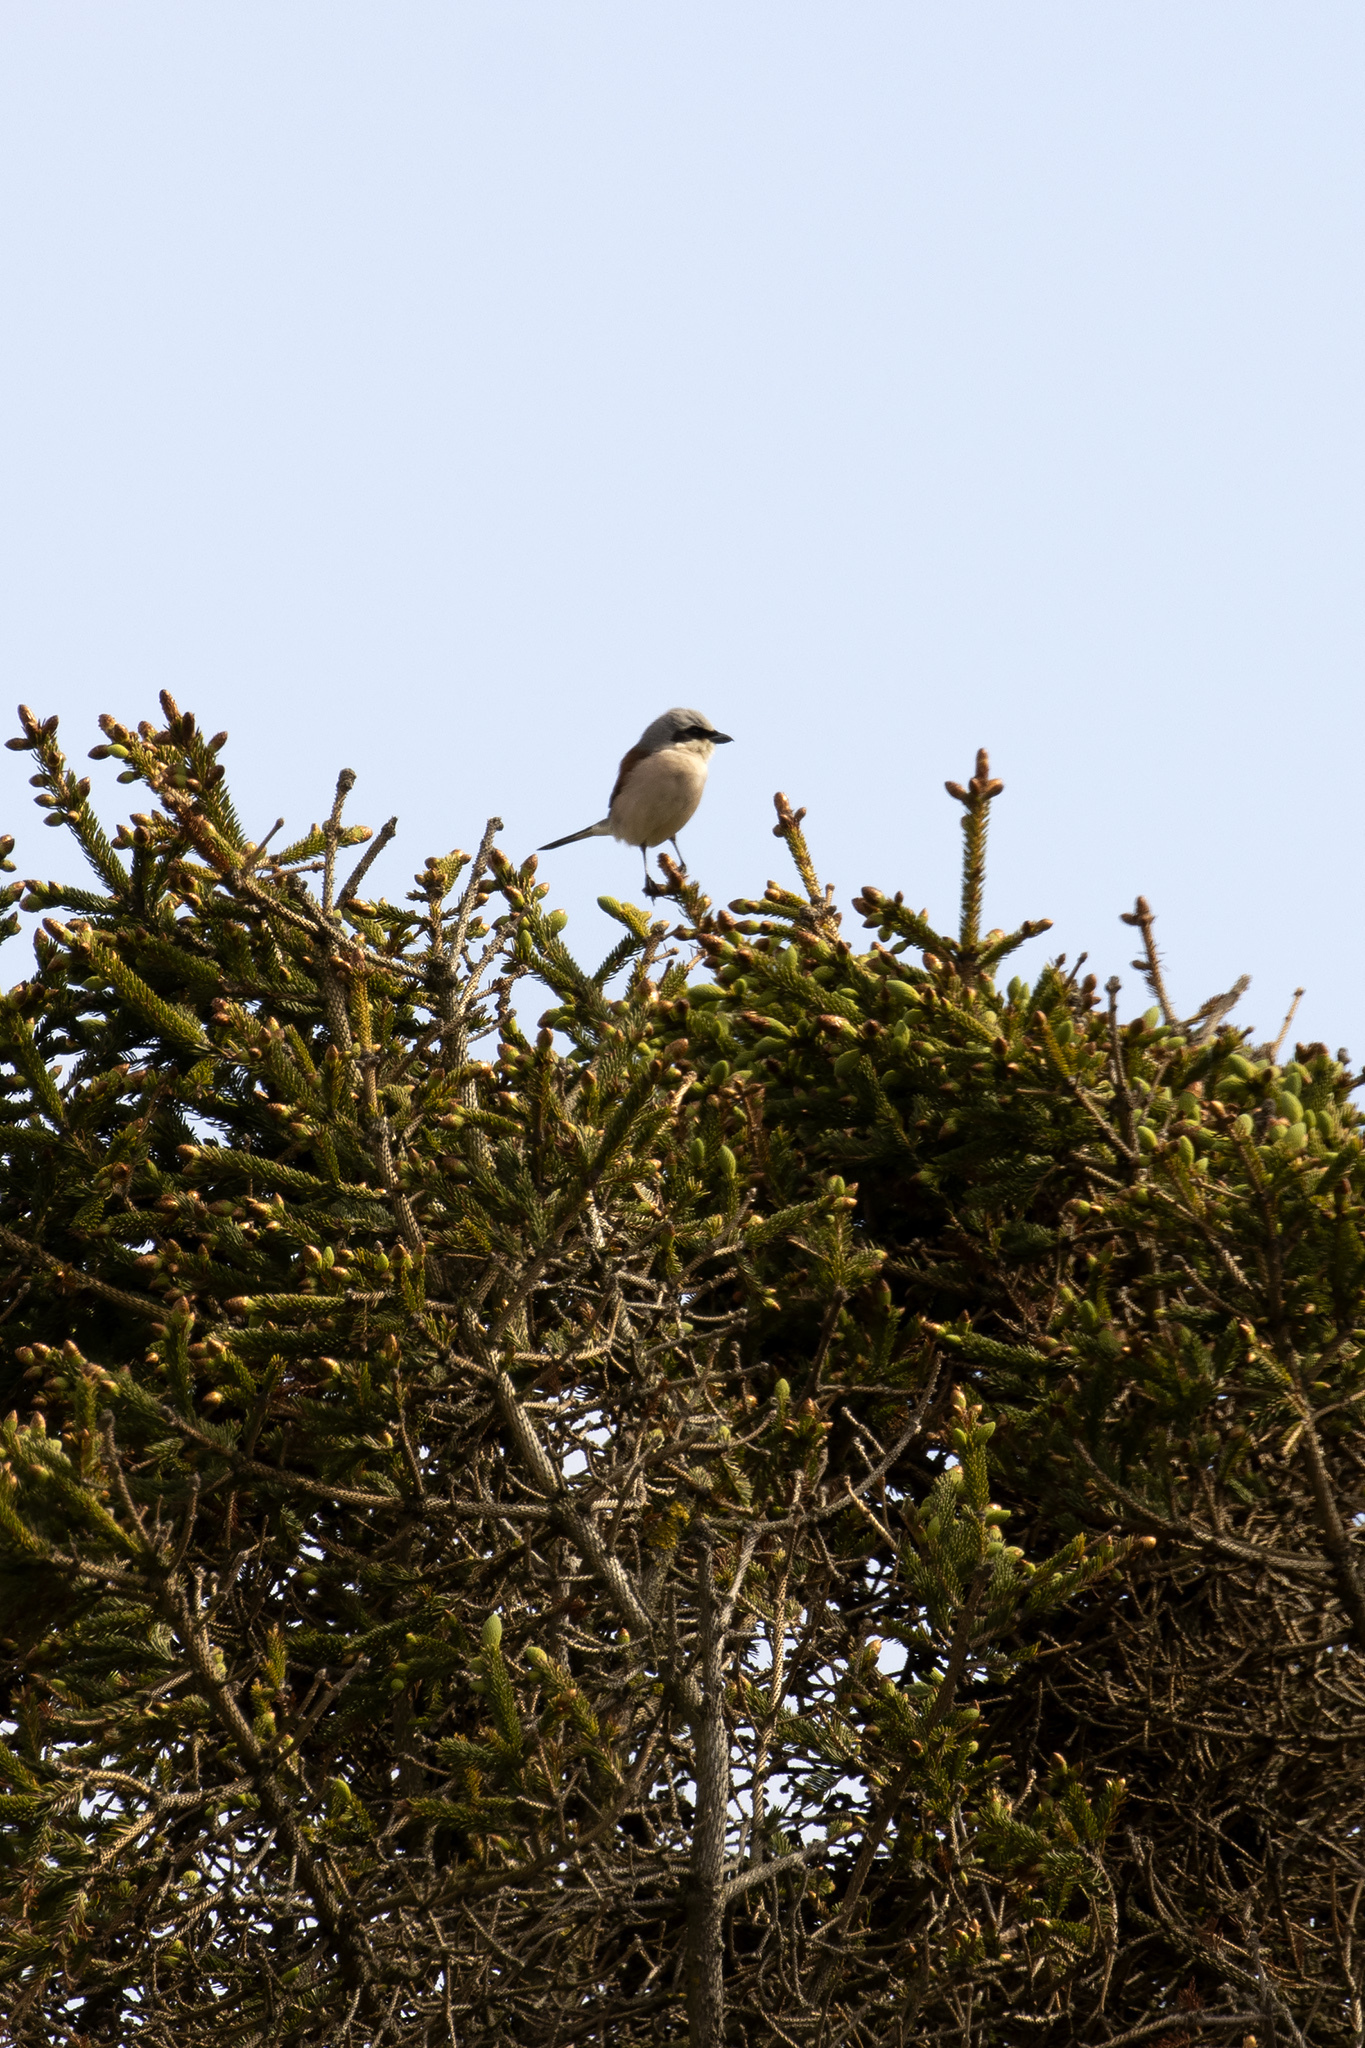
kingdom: Animalia
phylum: Chordata
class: Aves
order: Passeriformes
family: Laniidae
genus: Lanius
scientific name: Lanius collurio
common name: Red-backed shrike
